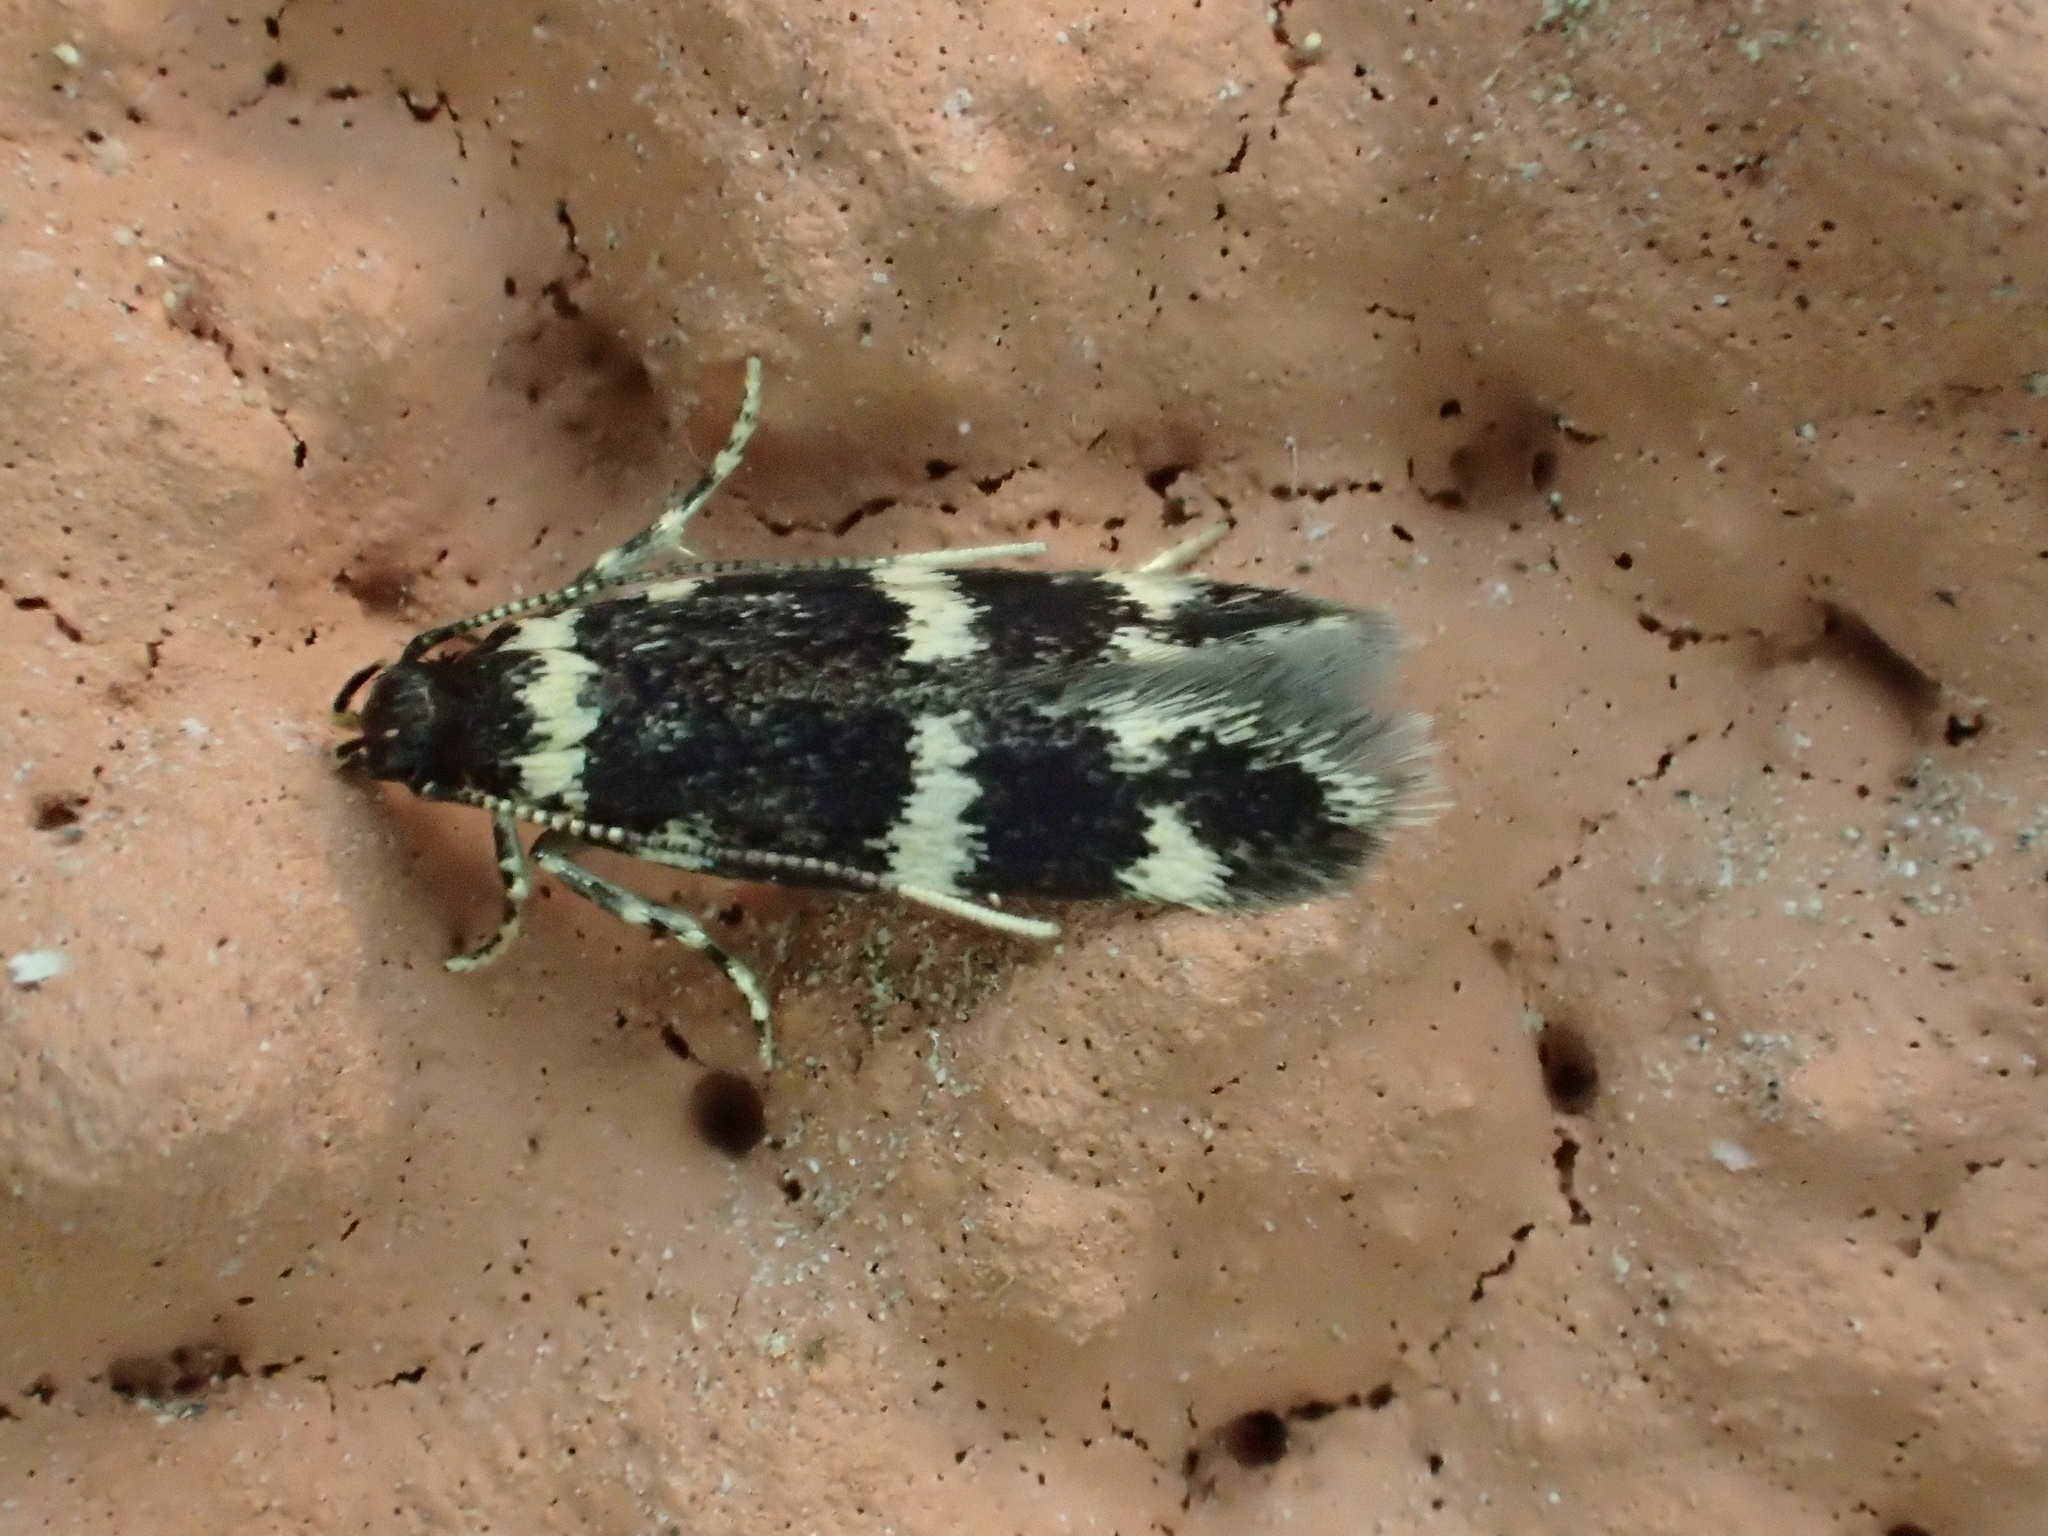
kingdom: Animalia
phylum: Arthropoda
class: Insecta
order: Lepidoptera
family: Autostichidae
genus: Oegoconia
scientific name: Oegoconia quadripuncta
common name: Four-spotted obscure
